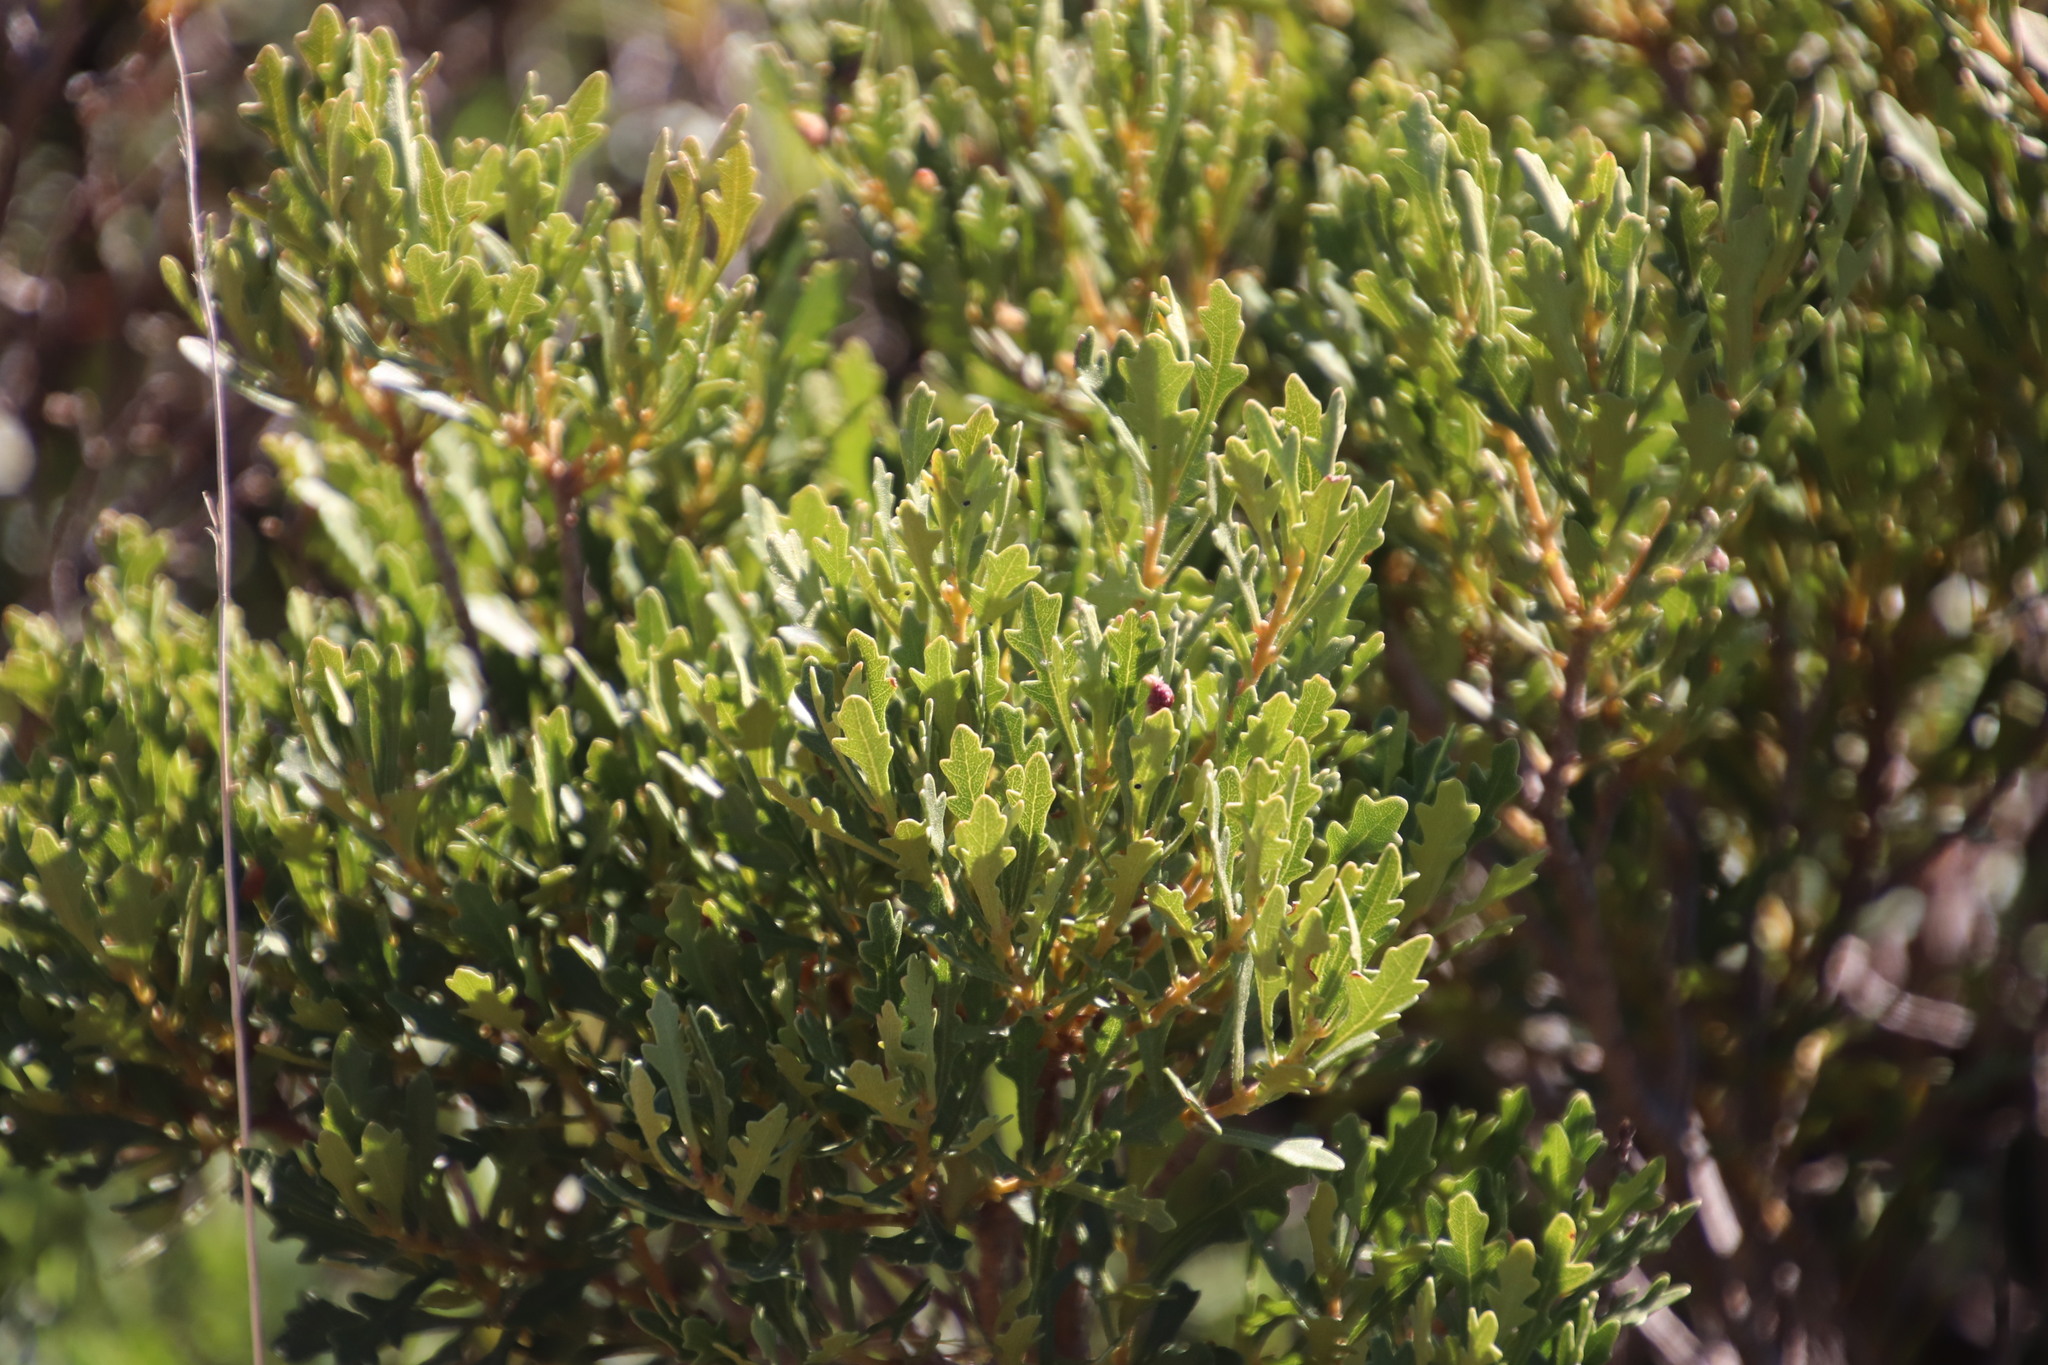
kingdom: Plantae
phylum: Tracheophyta
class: Magnoliopsida
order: Fagales
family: Myricaceae
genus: Morella
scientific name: Morella quercifolia
